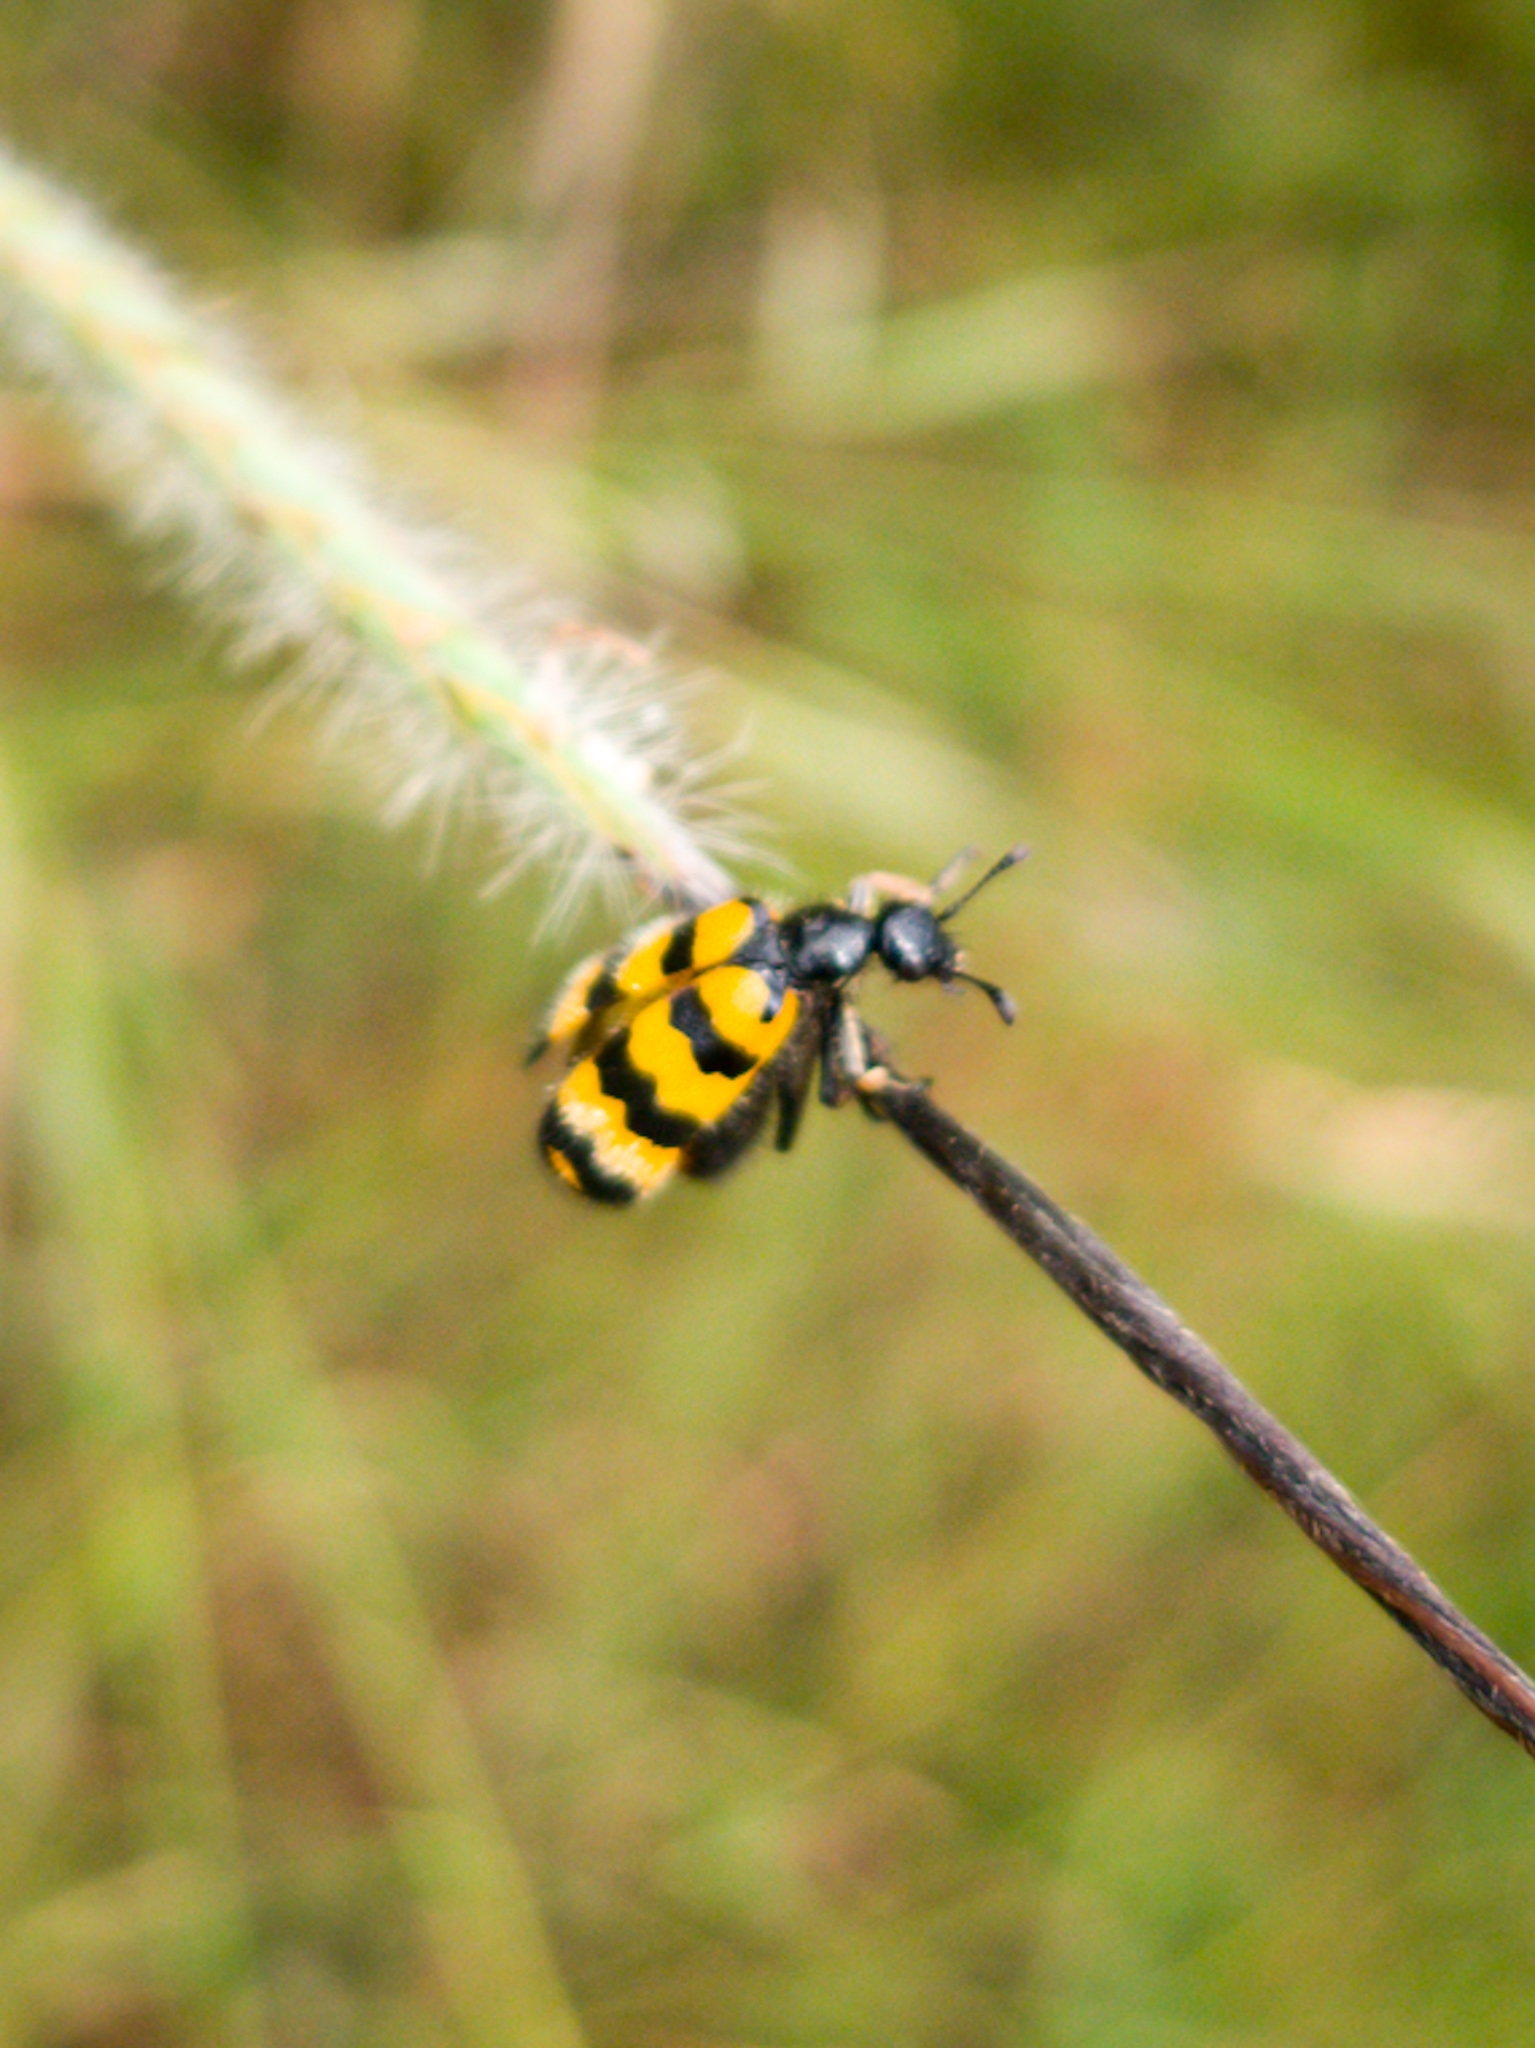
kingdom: Animalia
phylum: Arthropoda
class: Insecta
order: Coleoptera
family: Meloidae
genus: Hycleus
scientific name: Hycleus
